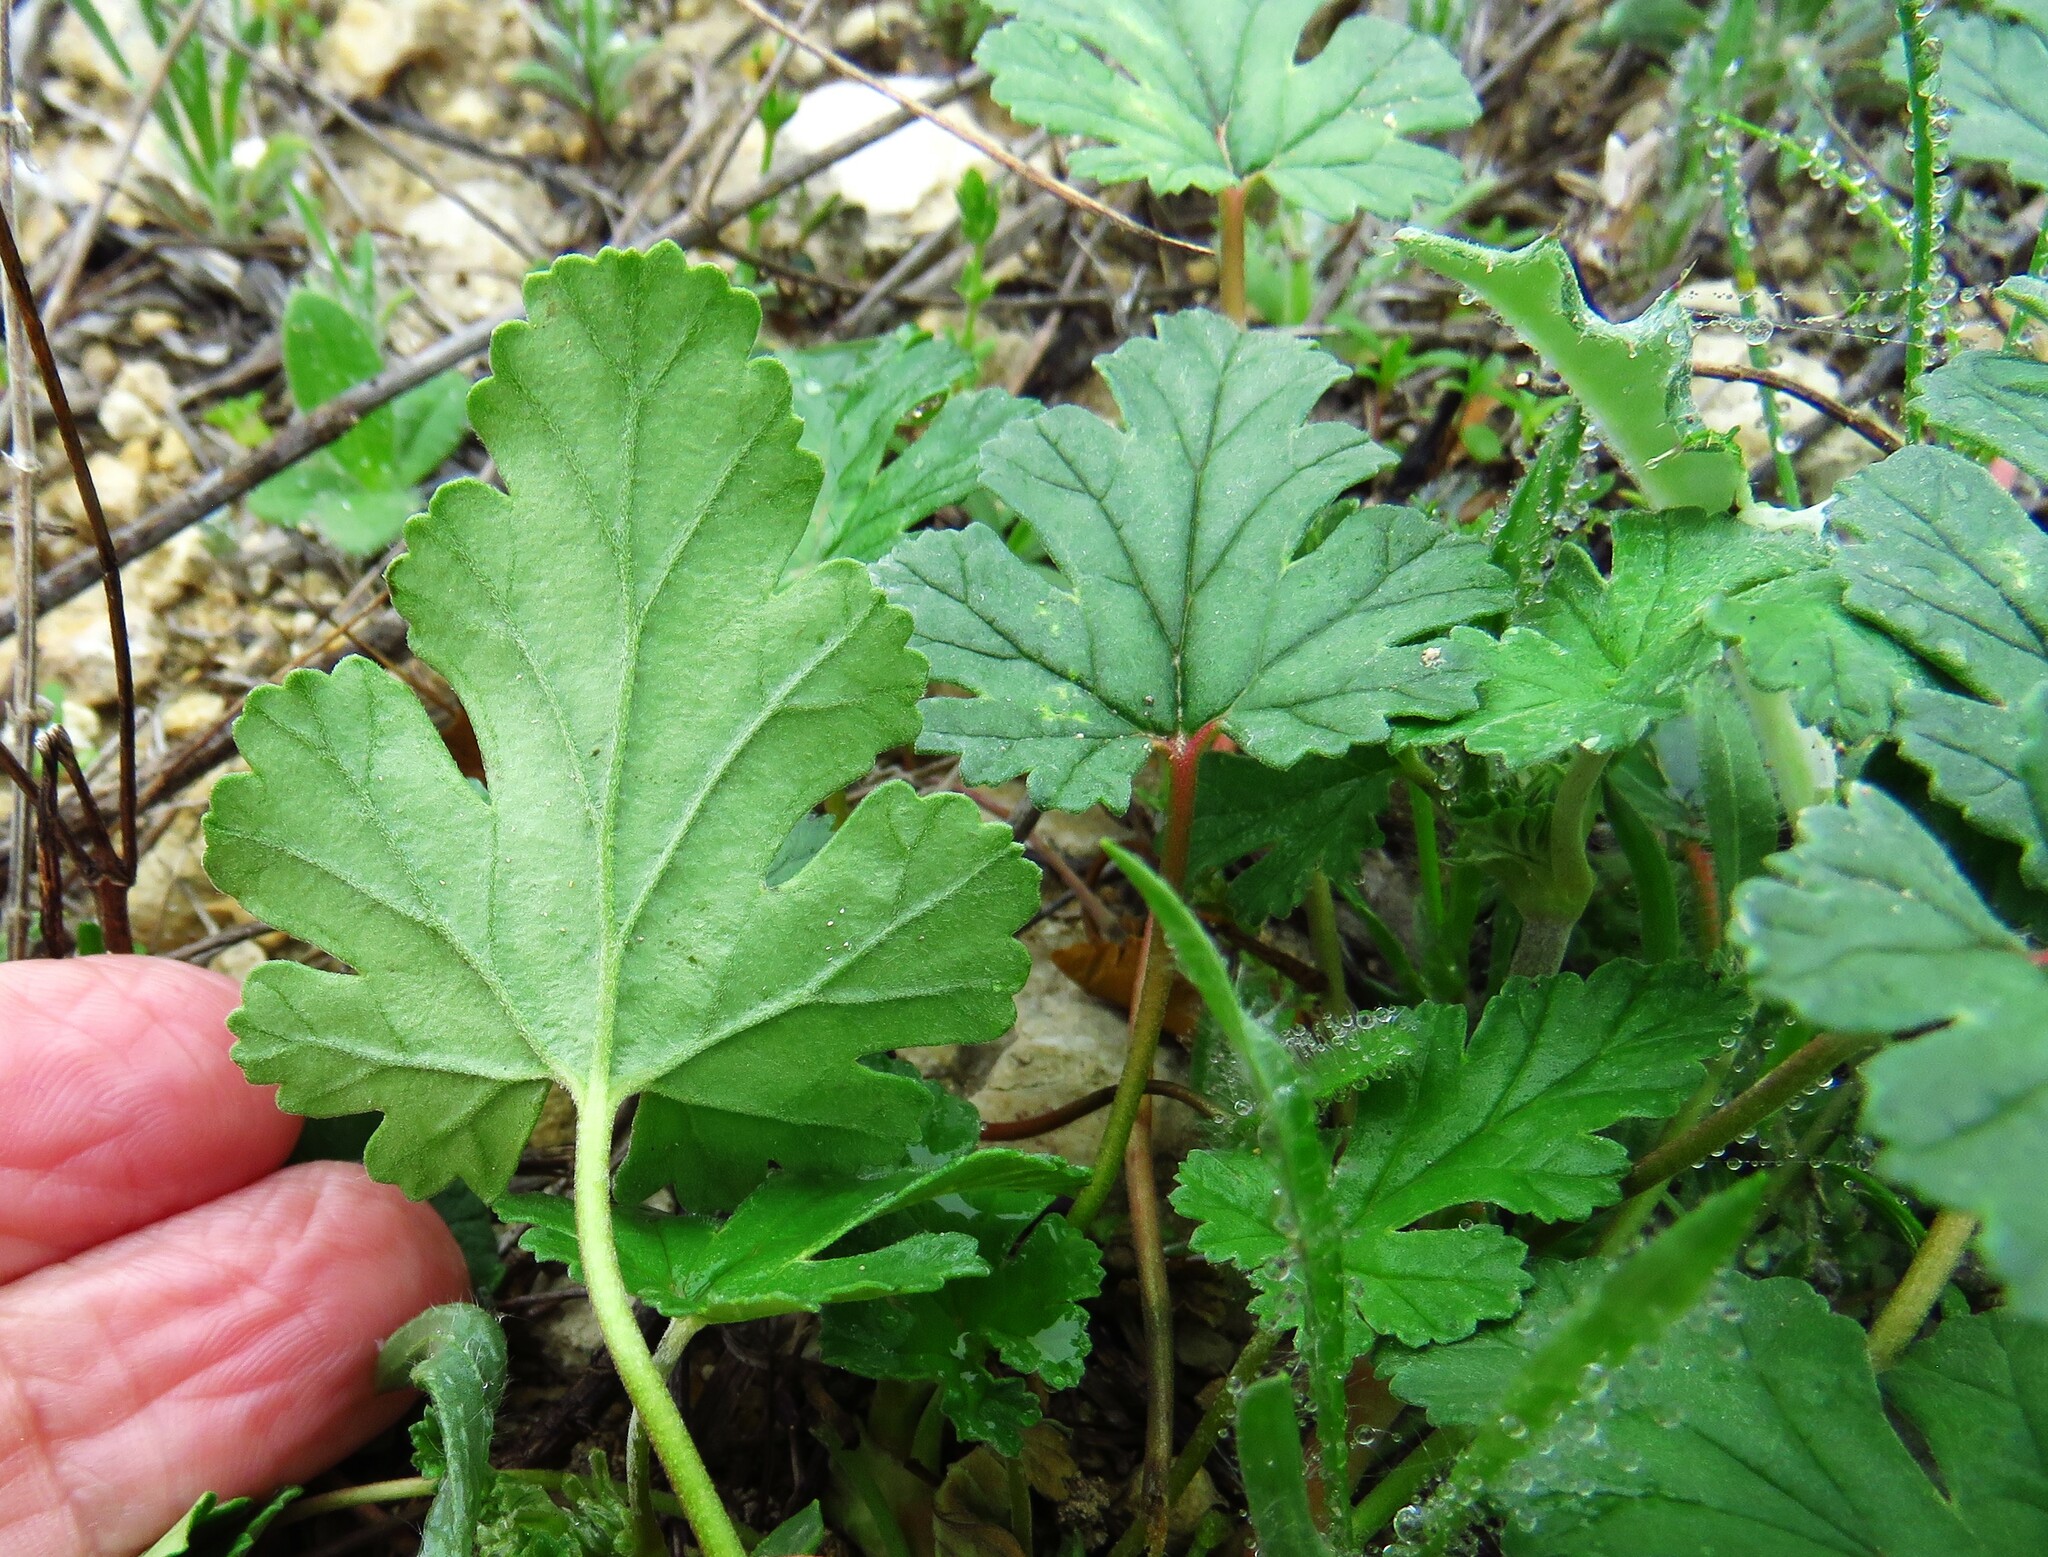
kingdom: Plantae
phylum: Tracheophyta
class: Magnoliopsida
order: Geraniales
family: Geraniaceae
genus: Erodium
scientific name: Erodium texanum
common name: Texas stork's-bill
